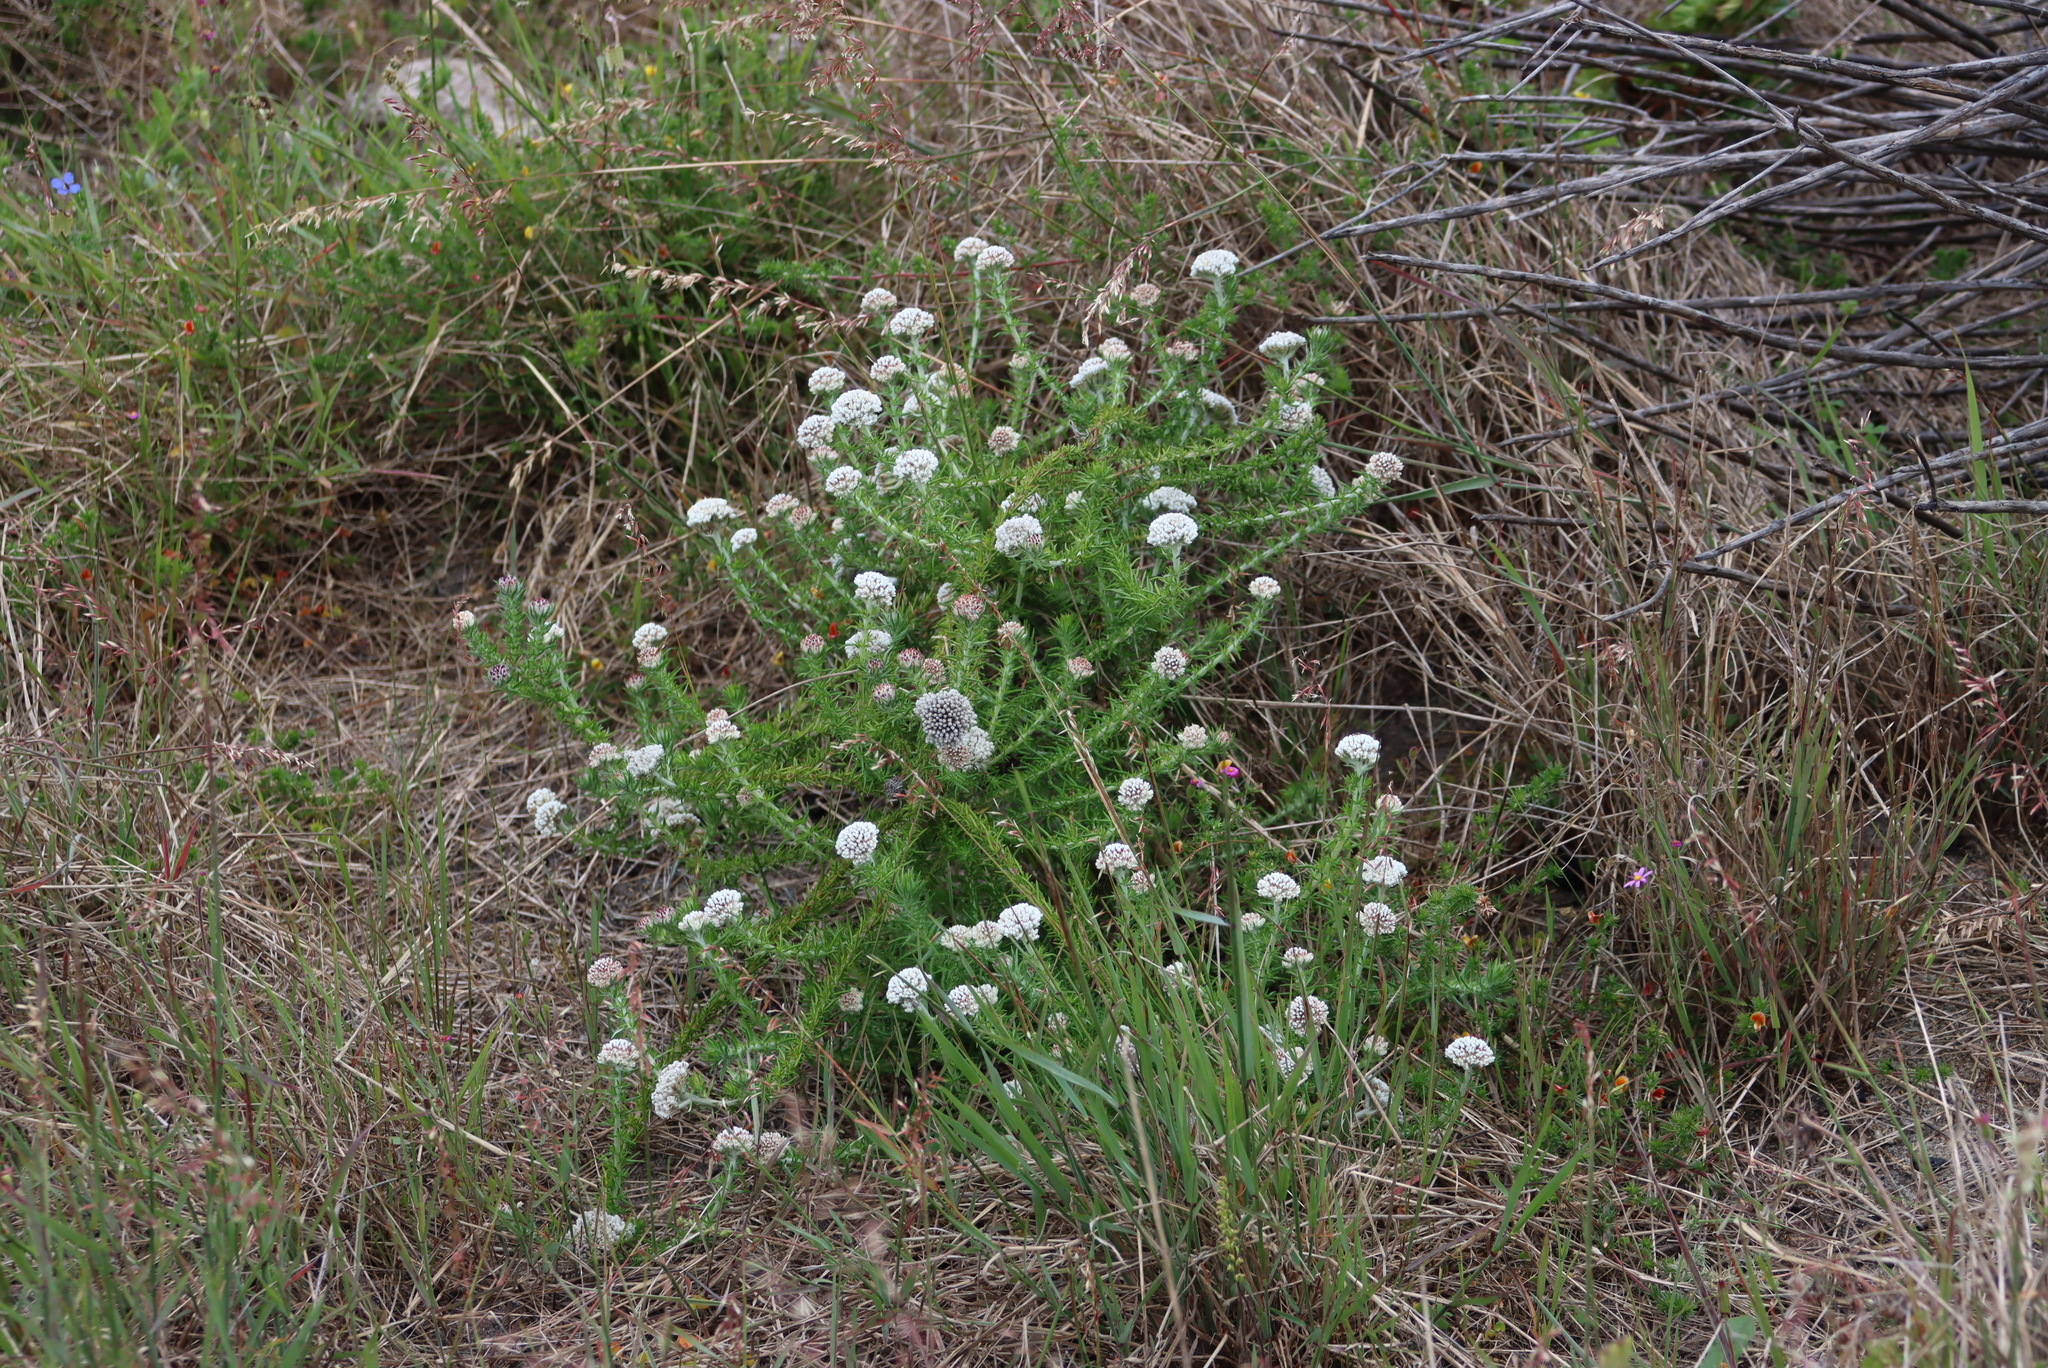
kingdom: Plantae
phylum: Tracheophyta
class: Magnoliopsida
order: Asterales
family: Asteraceae
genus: Metalasia
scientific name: Metalasia pulchella
